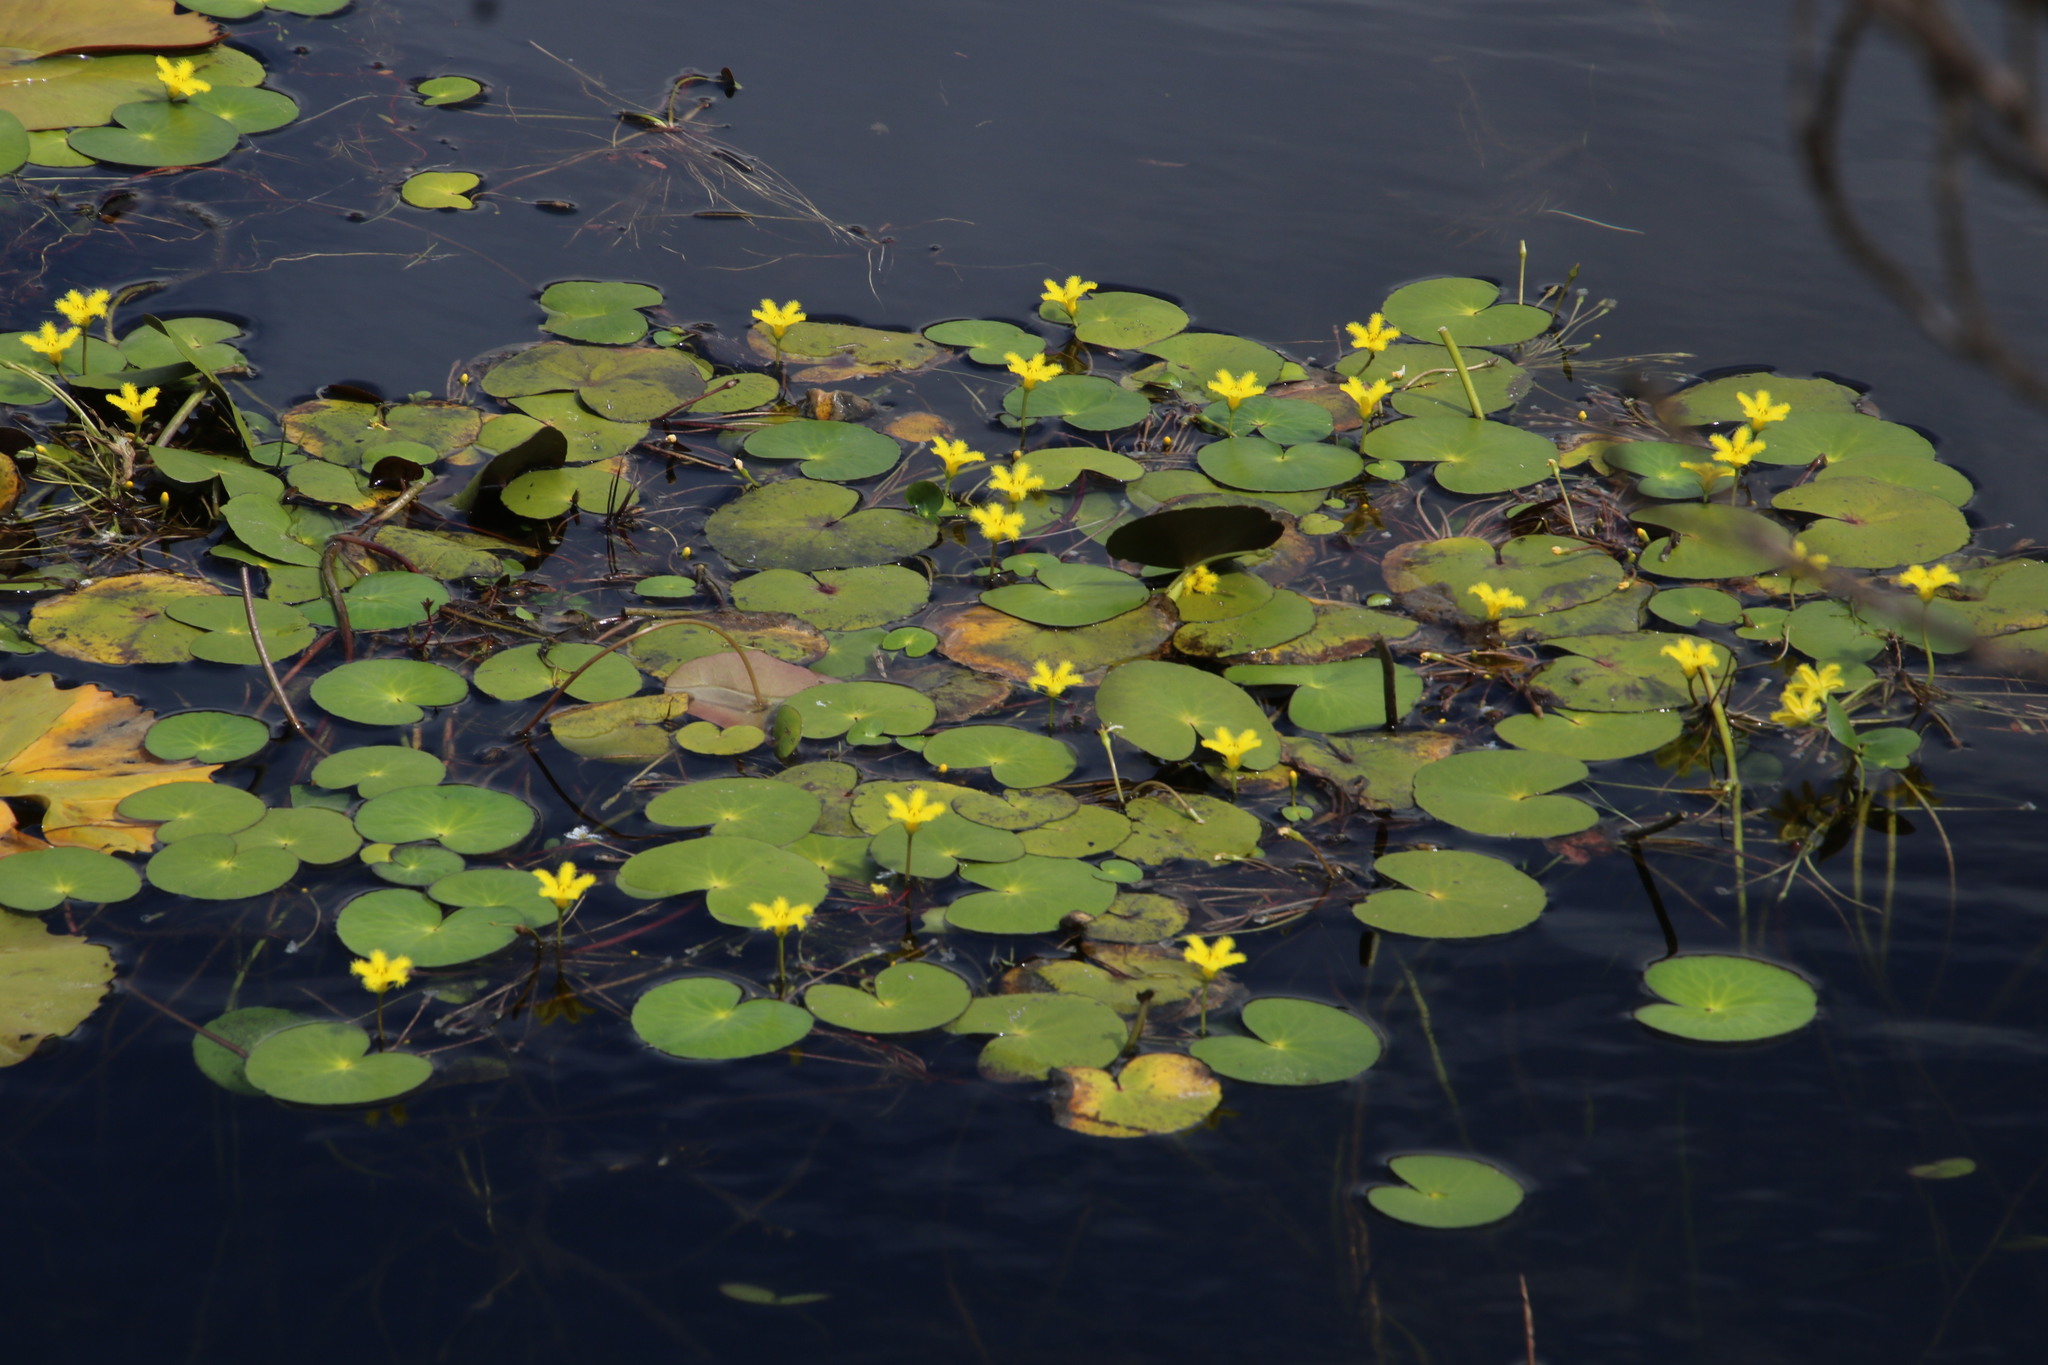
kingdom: Plantae
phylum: Tracheophyta
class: Magnoliopsida
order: Asterales
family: Menyanthaceae
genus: Nymphoides
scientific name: Nymphoides thunbergiana
